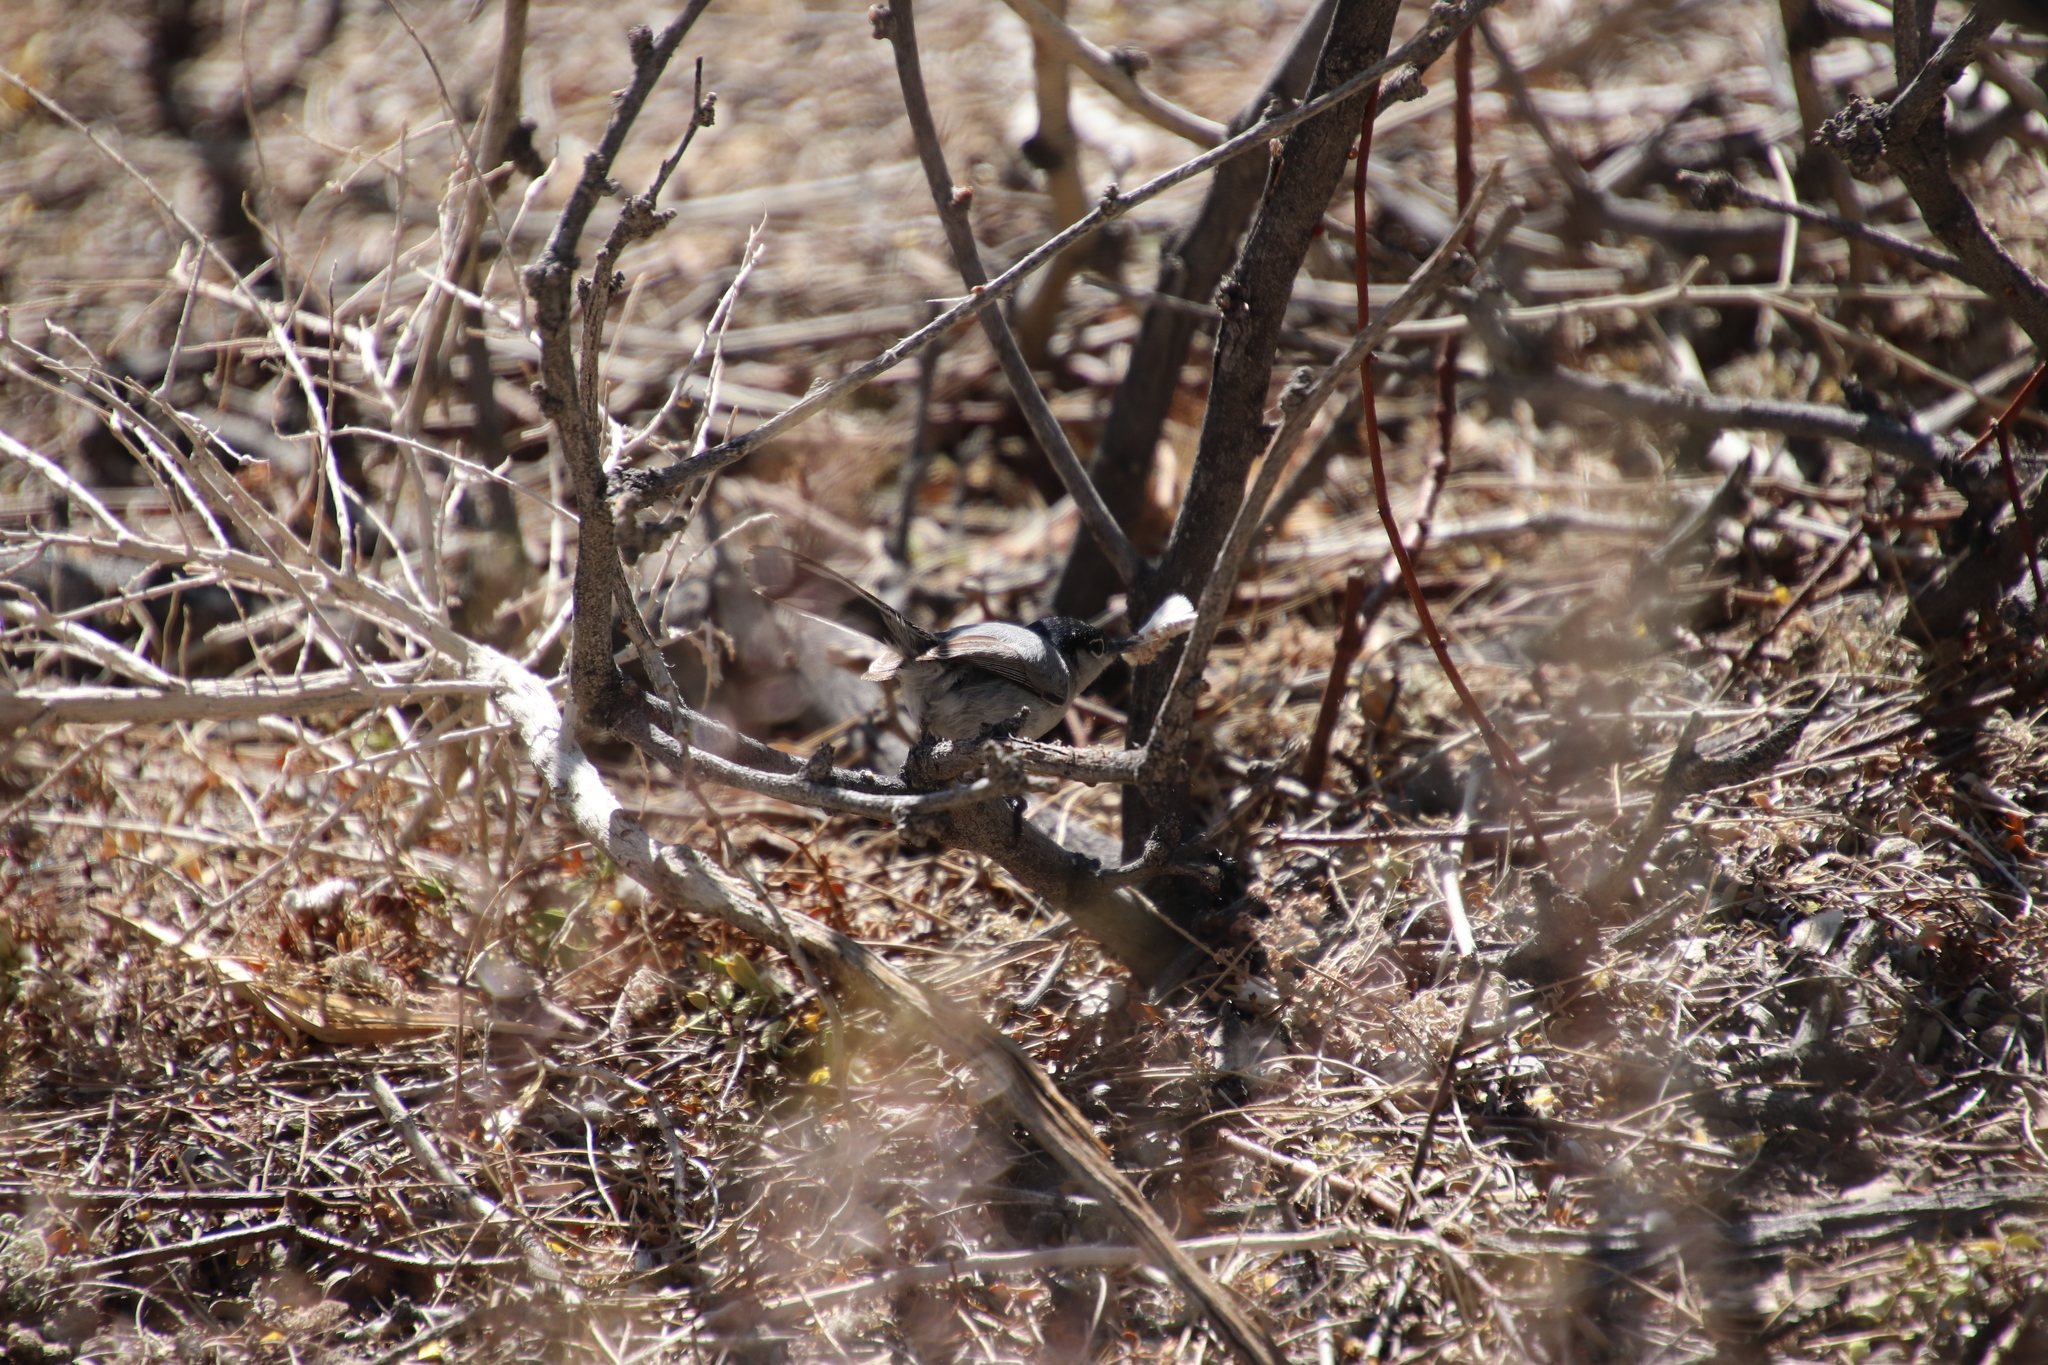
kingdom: Animalia
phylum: Chordata
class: Aves
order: Passeriformes
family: Polioptilidae
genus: Polioptila
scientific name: Polioptila melanura
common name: Black-tailed gnatcatcher
